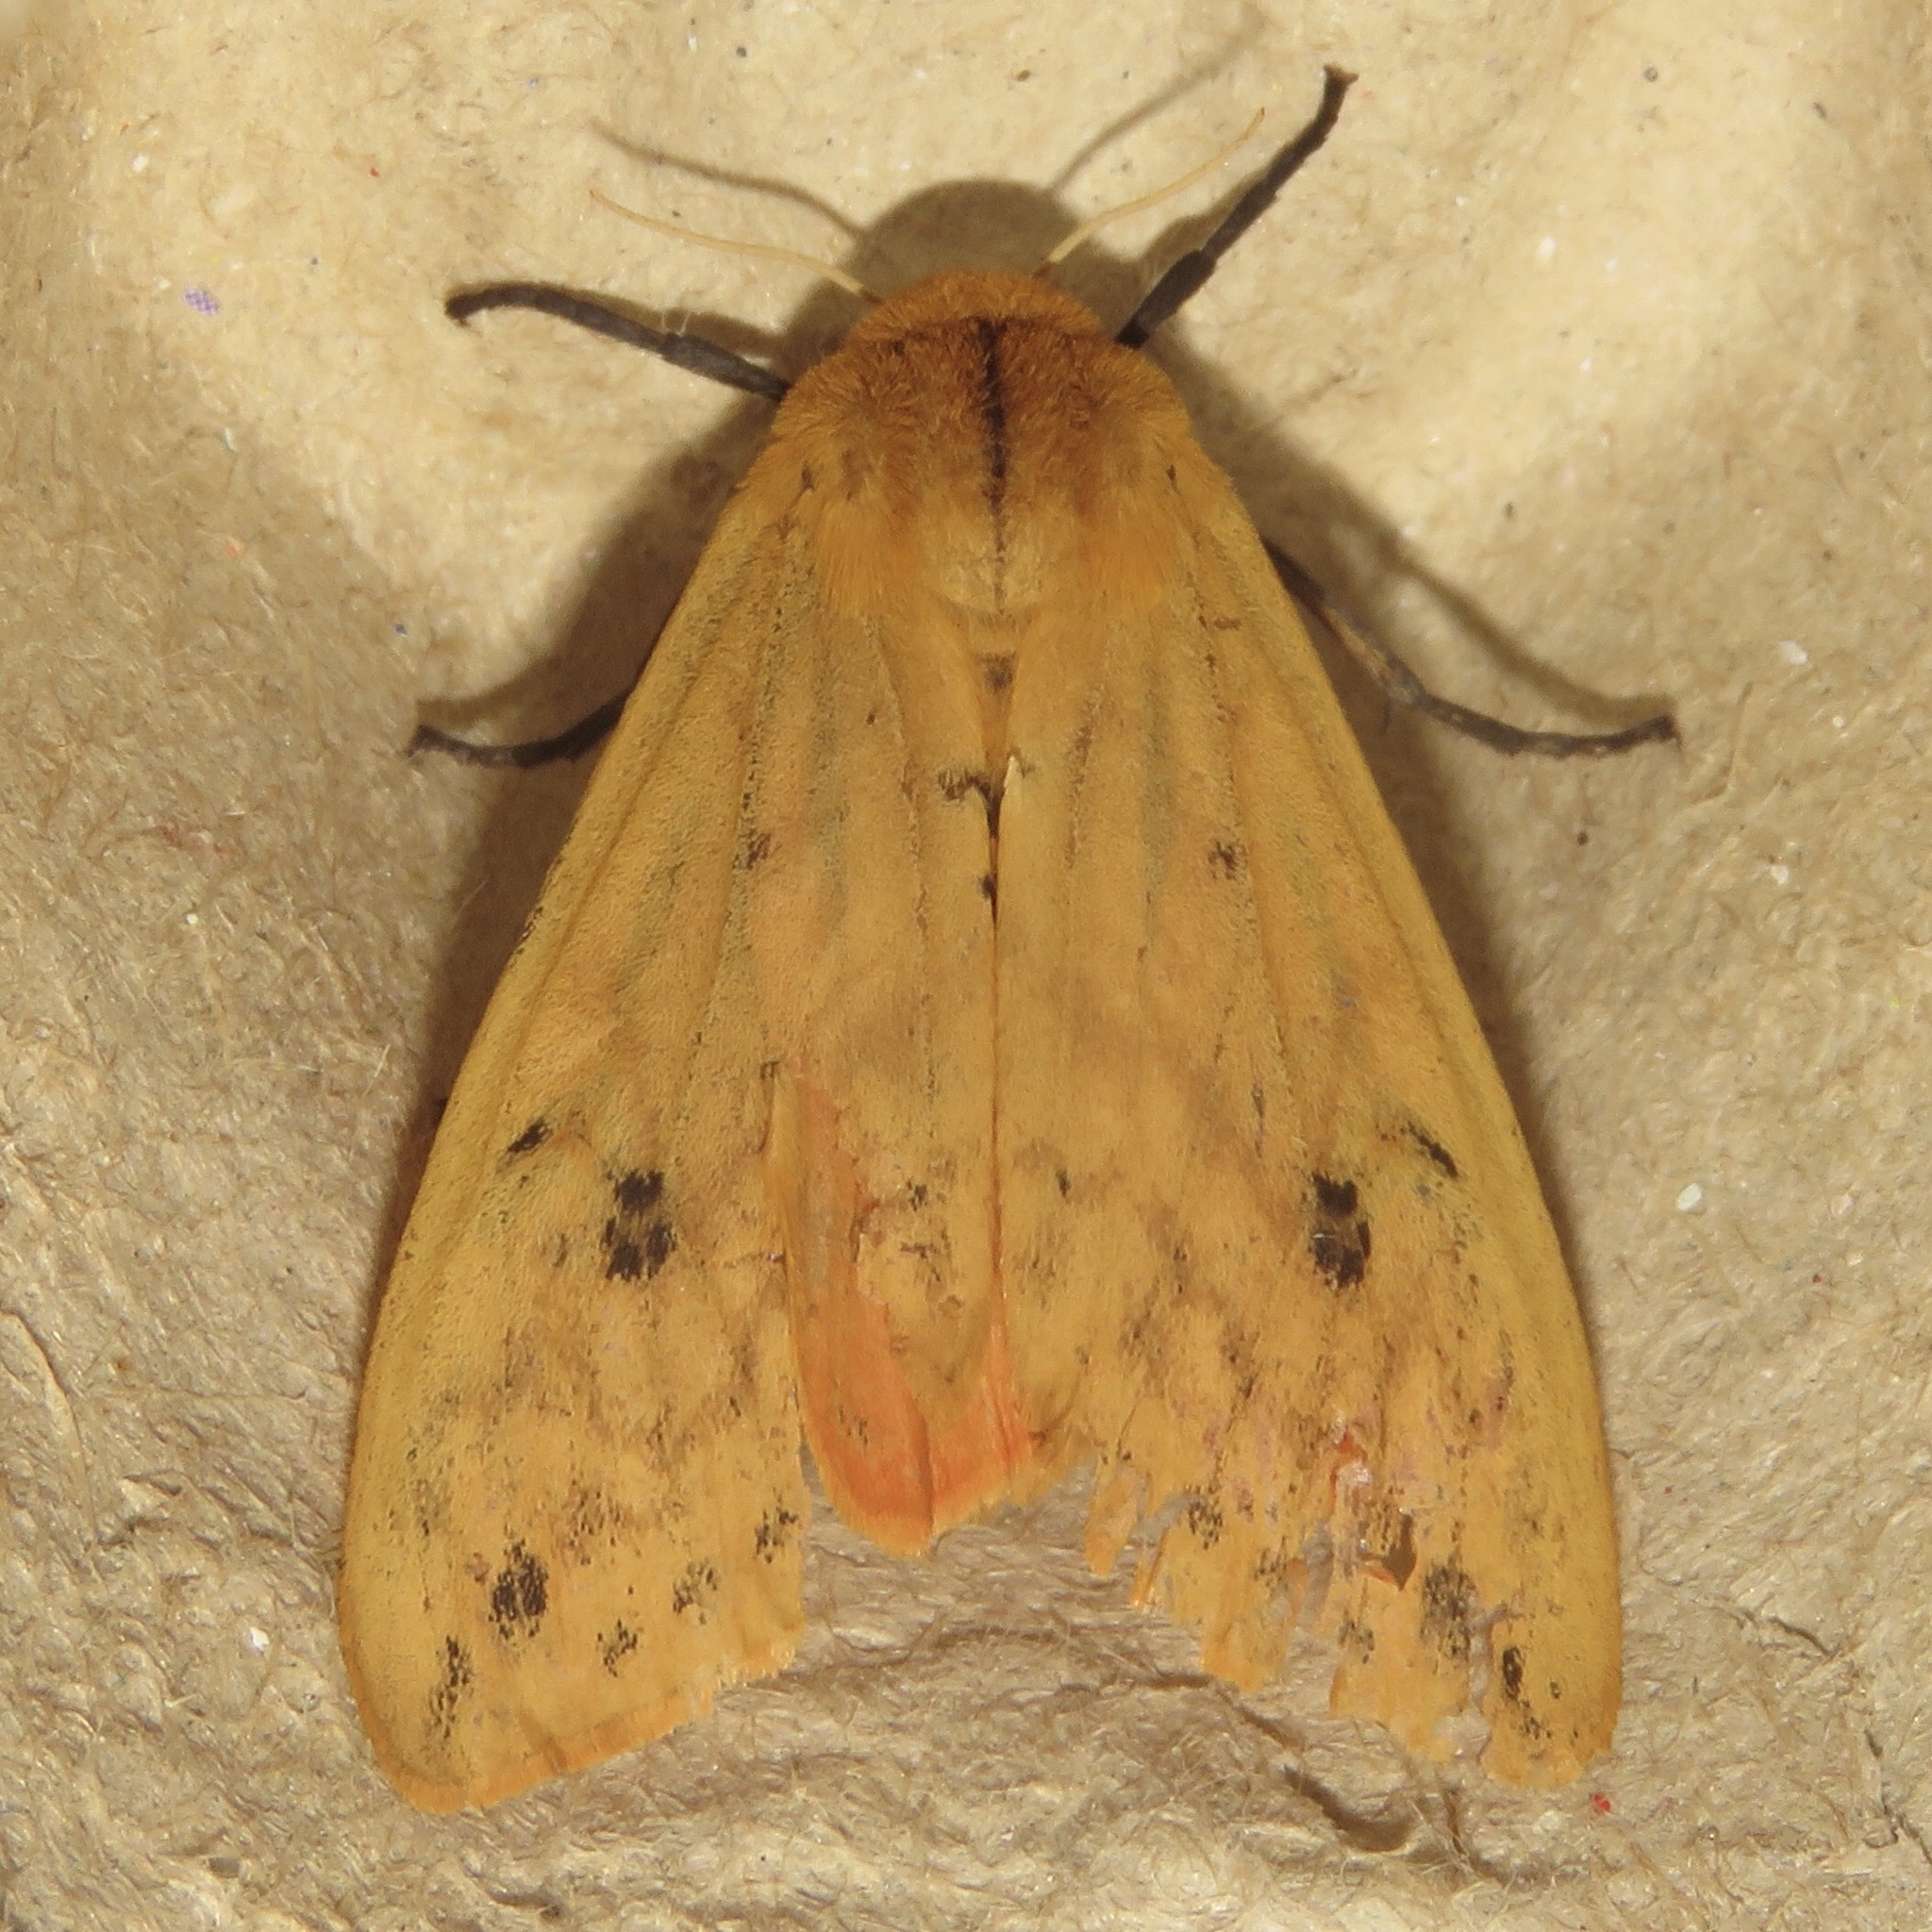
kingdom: Animalia
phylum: Arthropoda
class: Insecta
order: Lepidoptera
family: Erebidae
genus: Pyrrharctia
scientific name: Pyrrharctia isabella
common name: Isabella tiger moth
